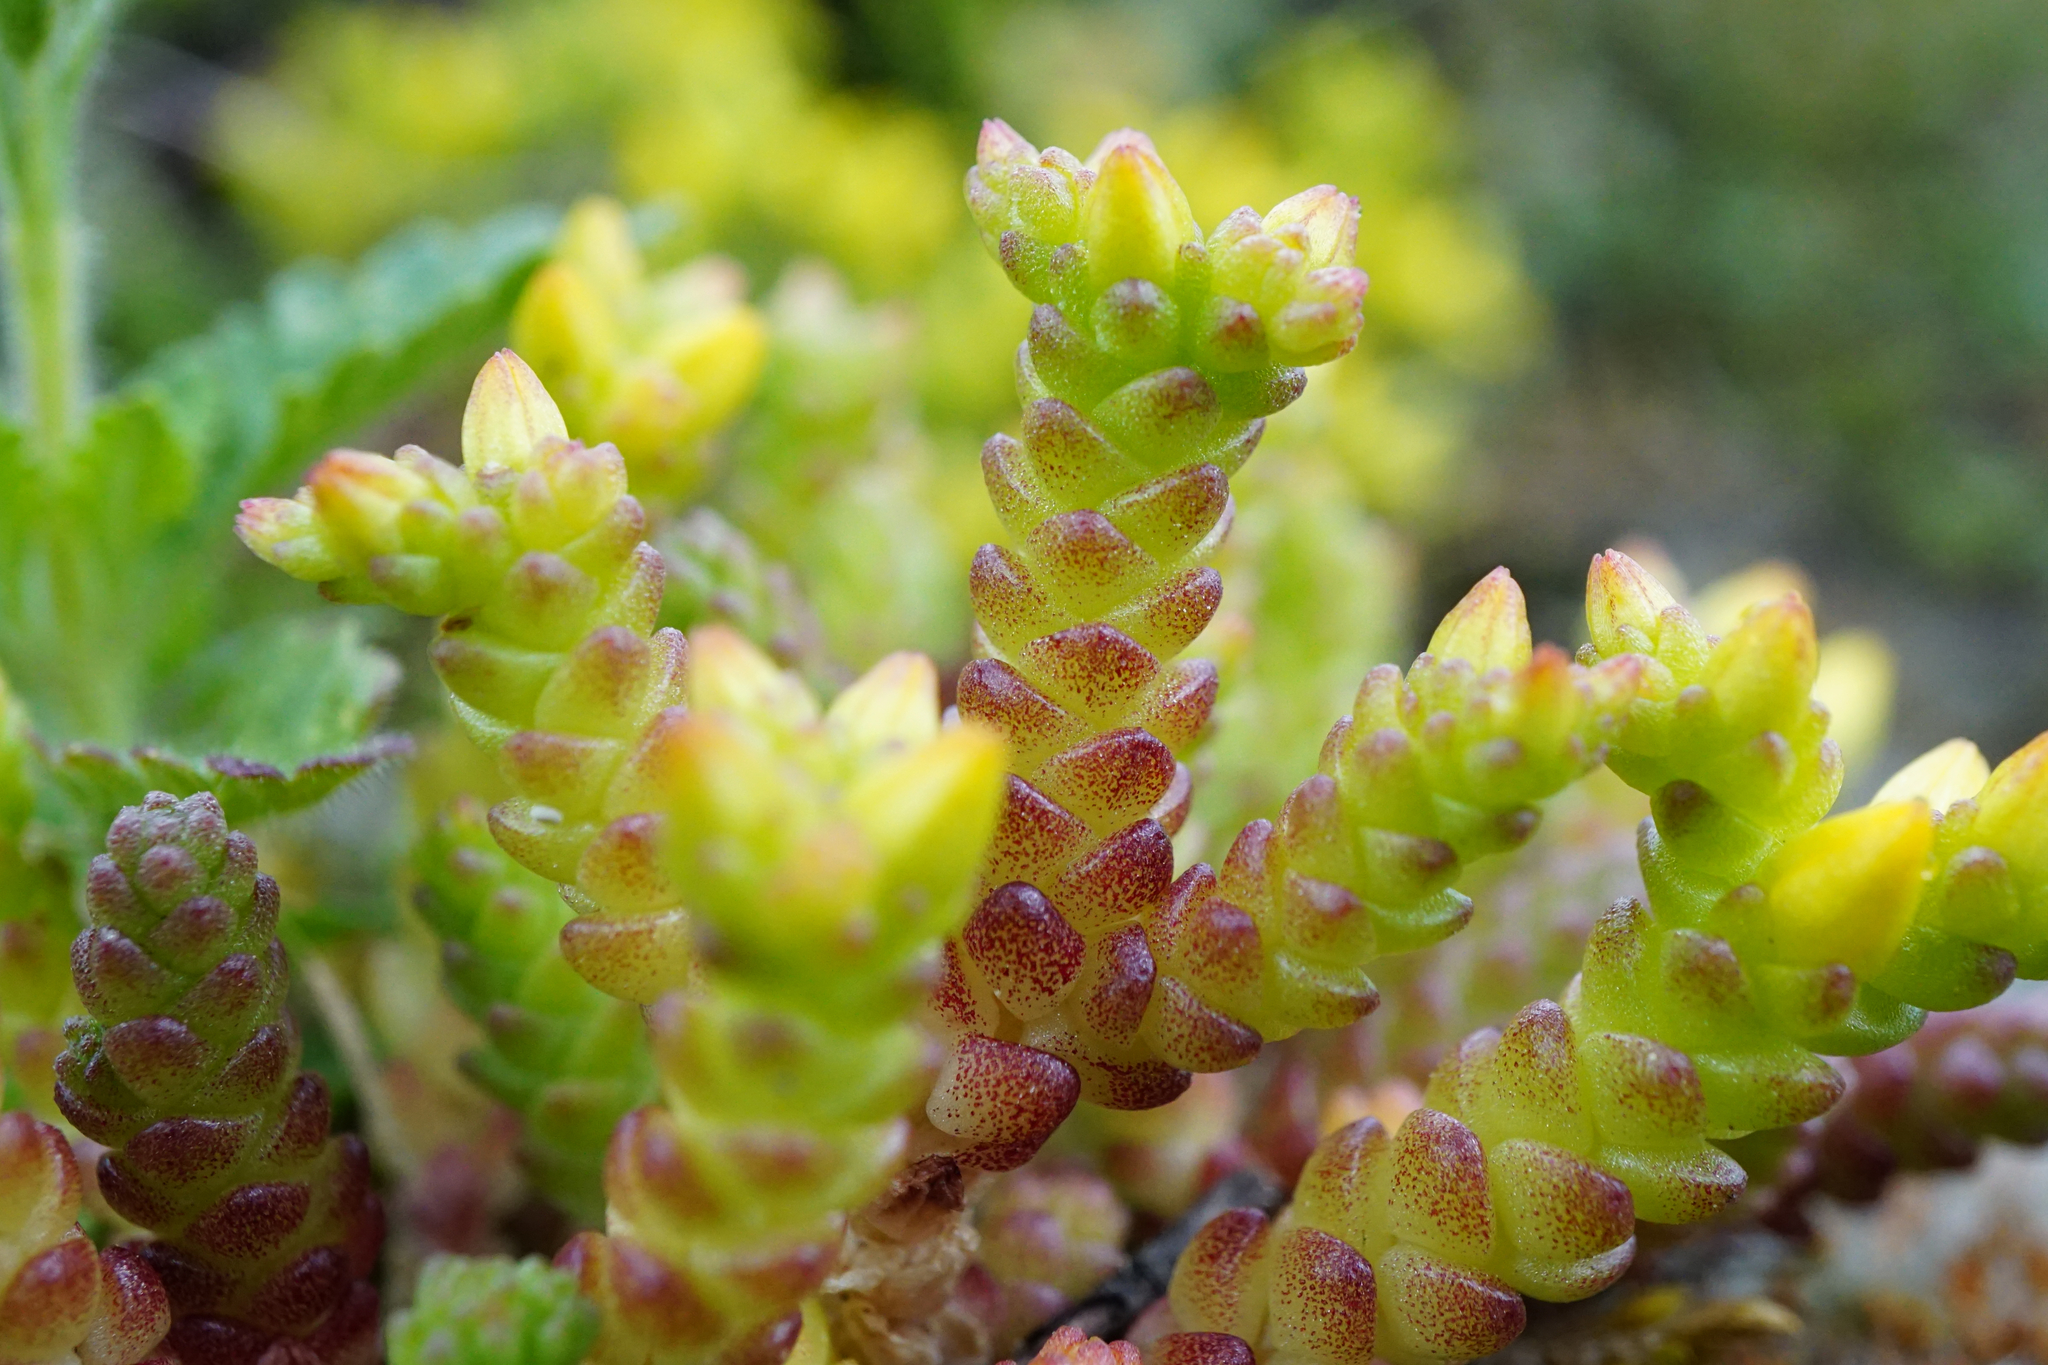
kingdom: Plantae
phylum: Tracheophyta
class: Magnoliopsida
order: Saxifragales
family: Crassulaceae
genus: Sedum
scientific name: Sedum acre
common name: Biting stonecrop
